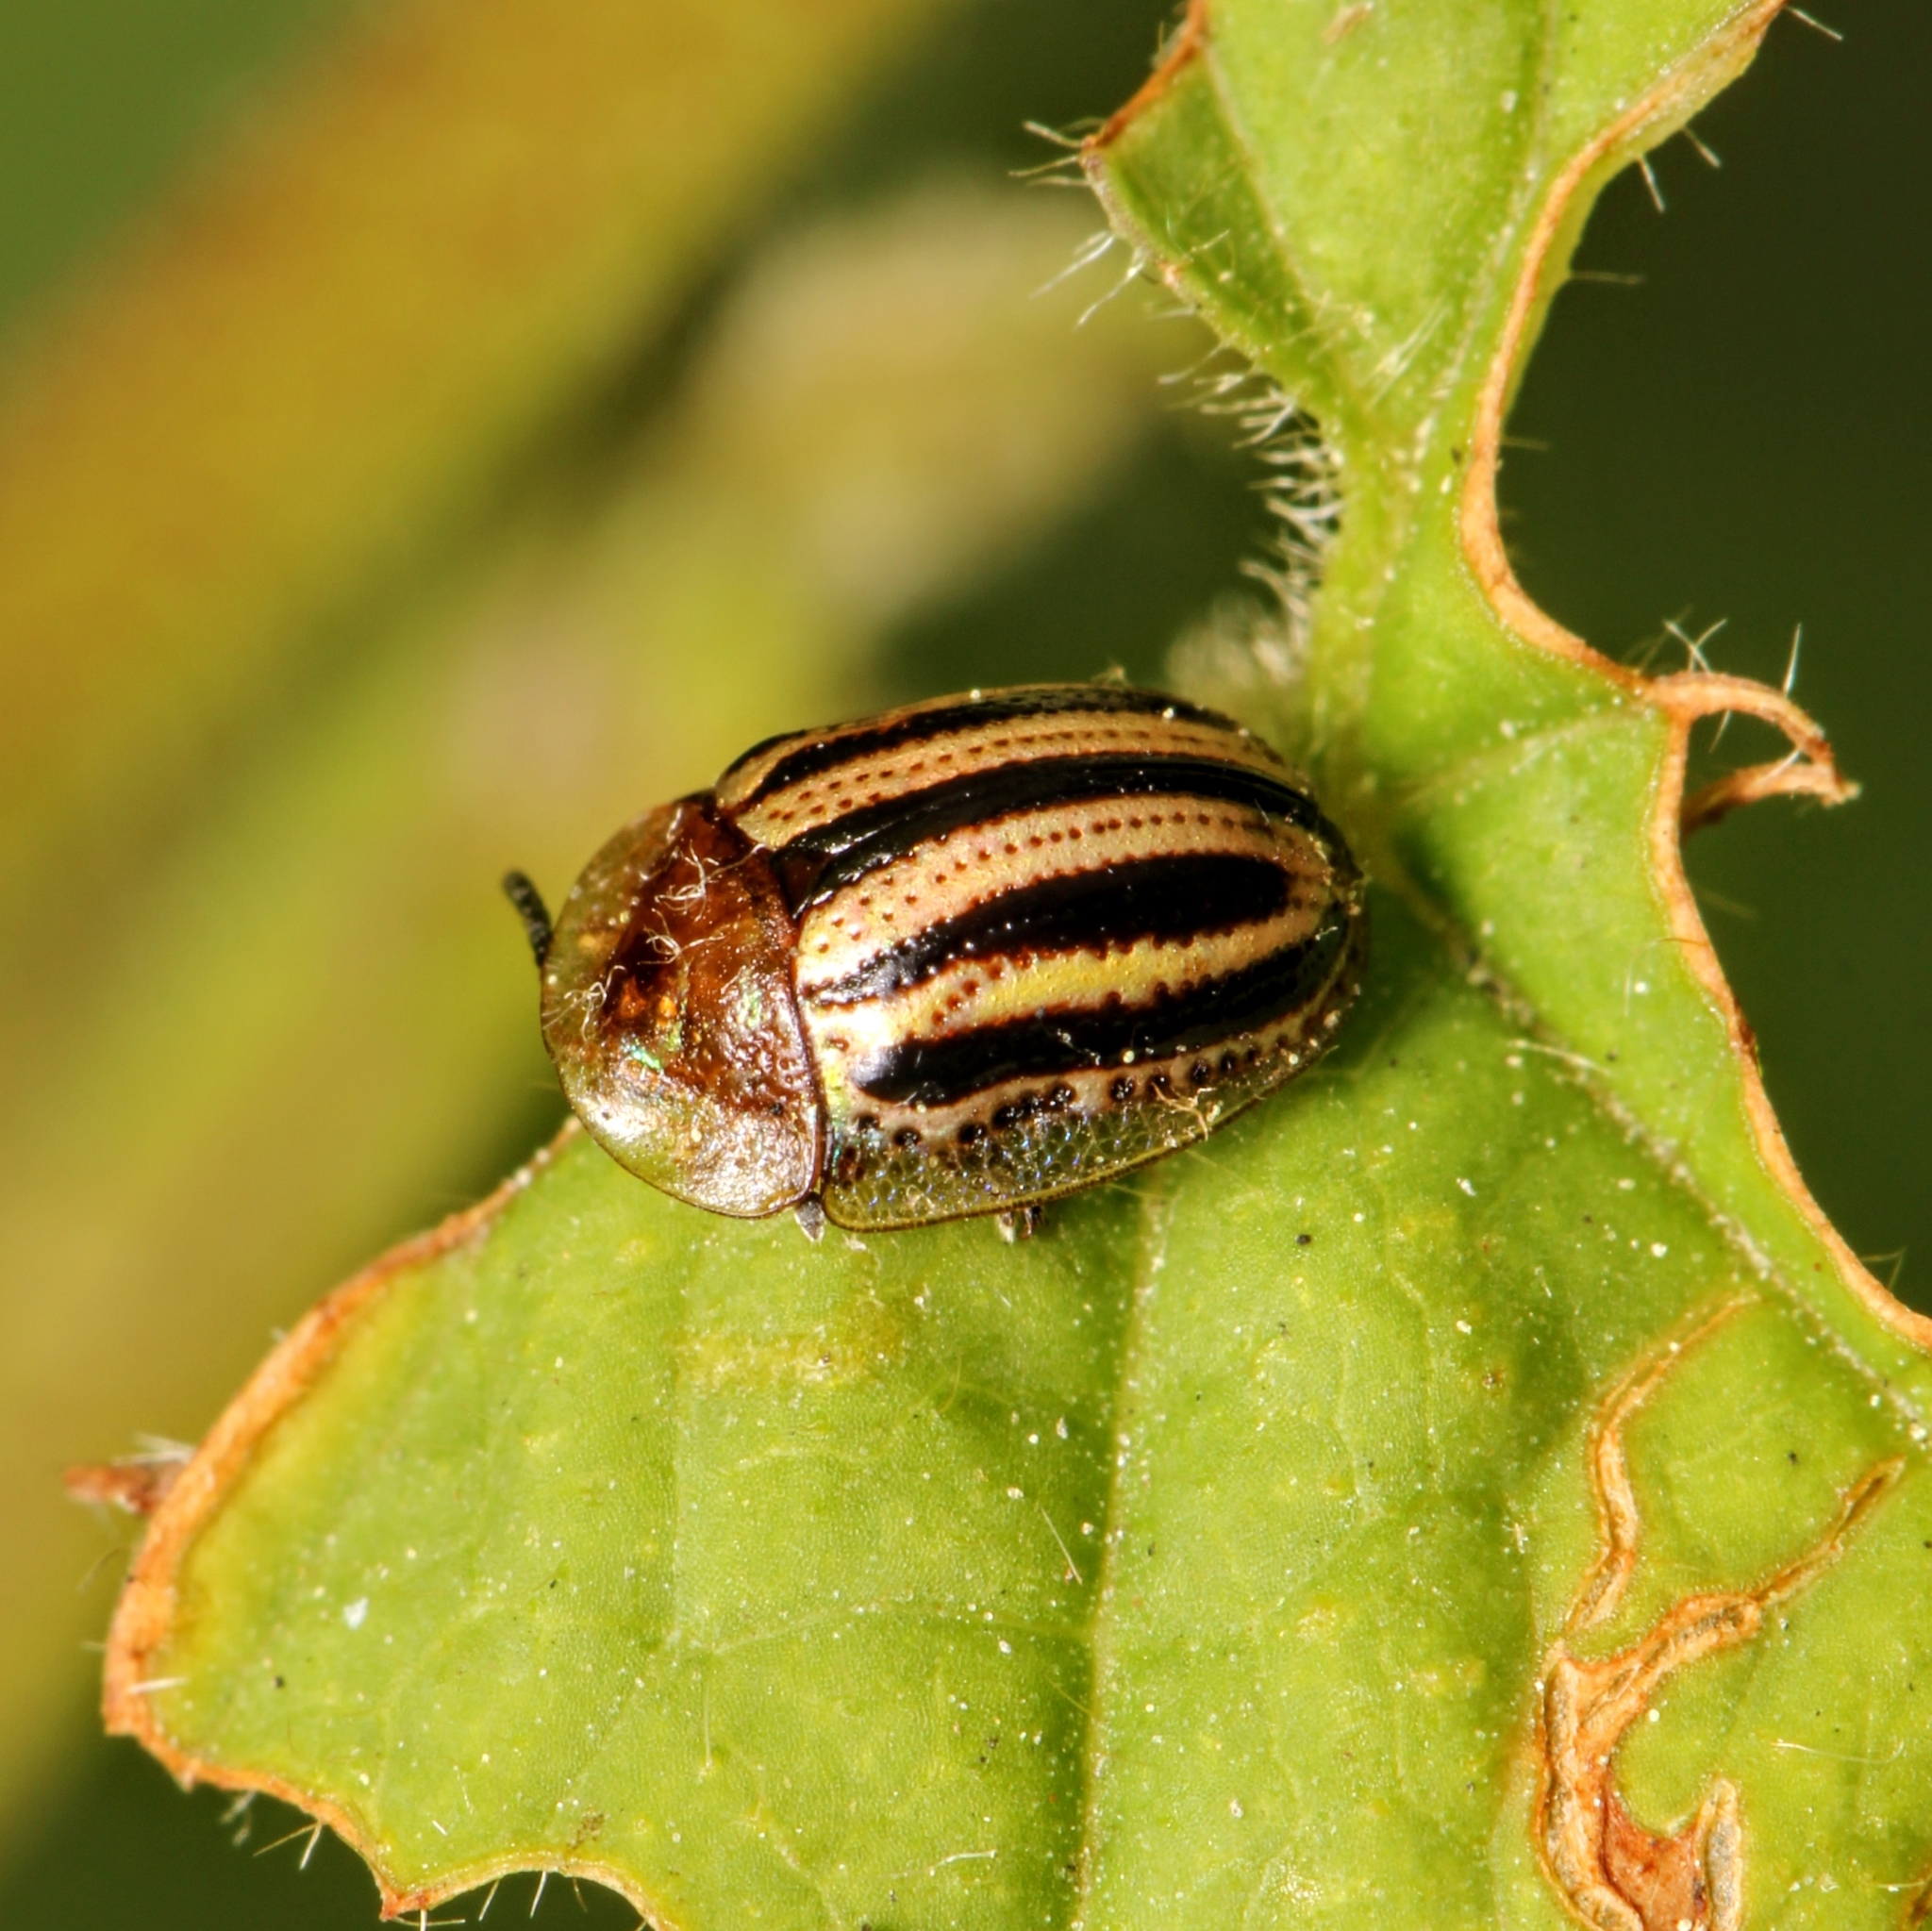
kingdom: Animalia
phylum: Arthropoda
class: Insecta
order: Coleoptera
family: Chrysomelidae
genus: Agroiconota
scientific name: Agroiconota bivittata
